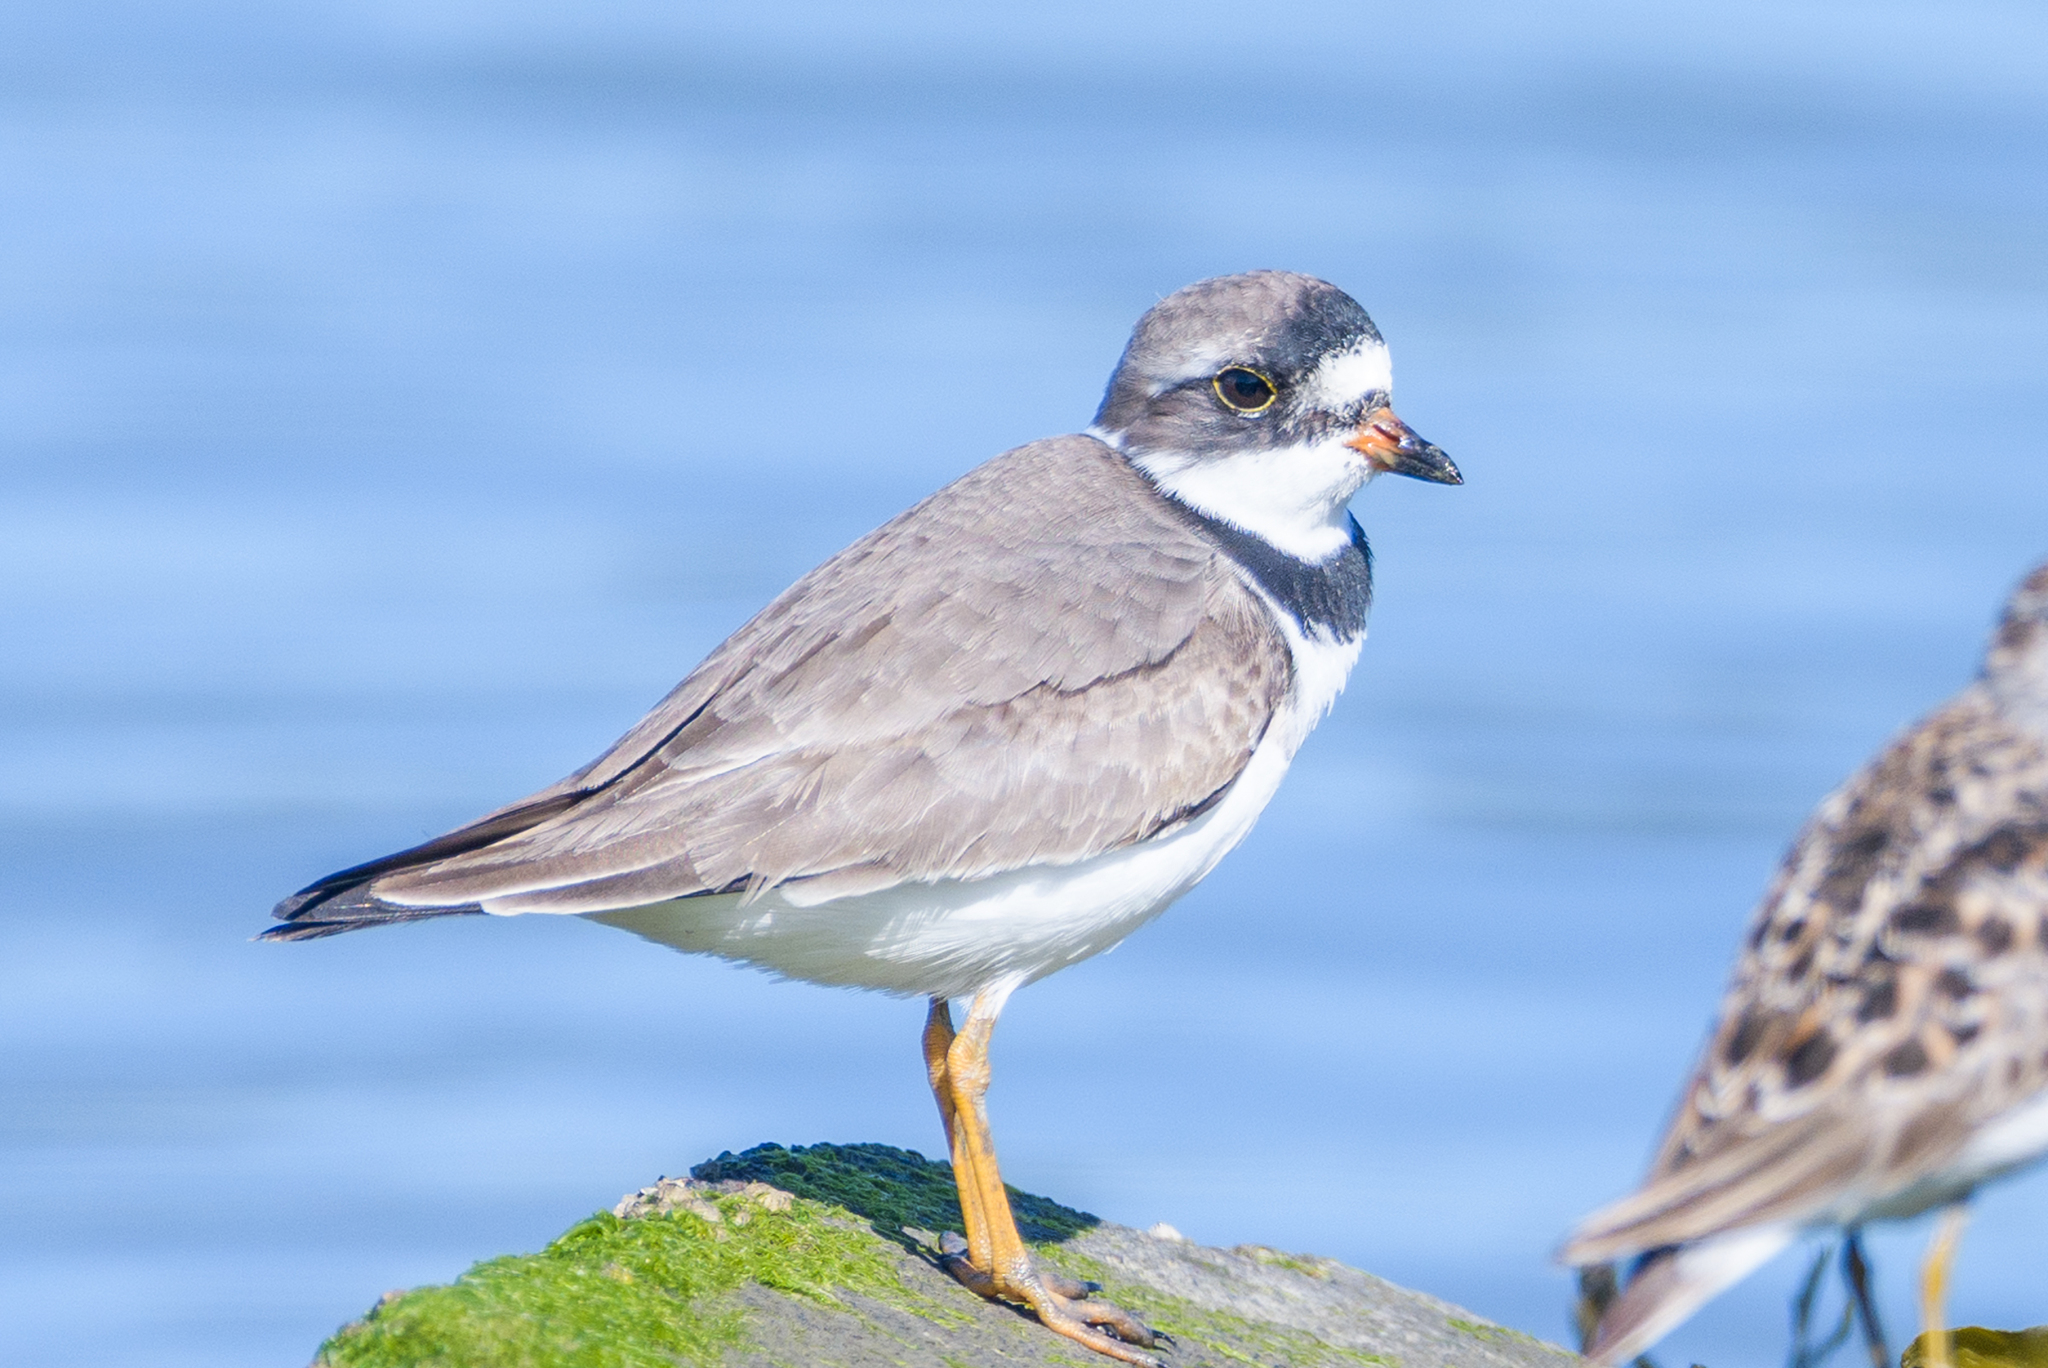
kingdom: Animalia
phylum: Chordata
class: Aves
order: Charadriiformes
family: Charadriidae
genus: Charadrius
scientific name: Charadrius semipalmatus
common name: Semipalmated plover
